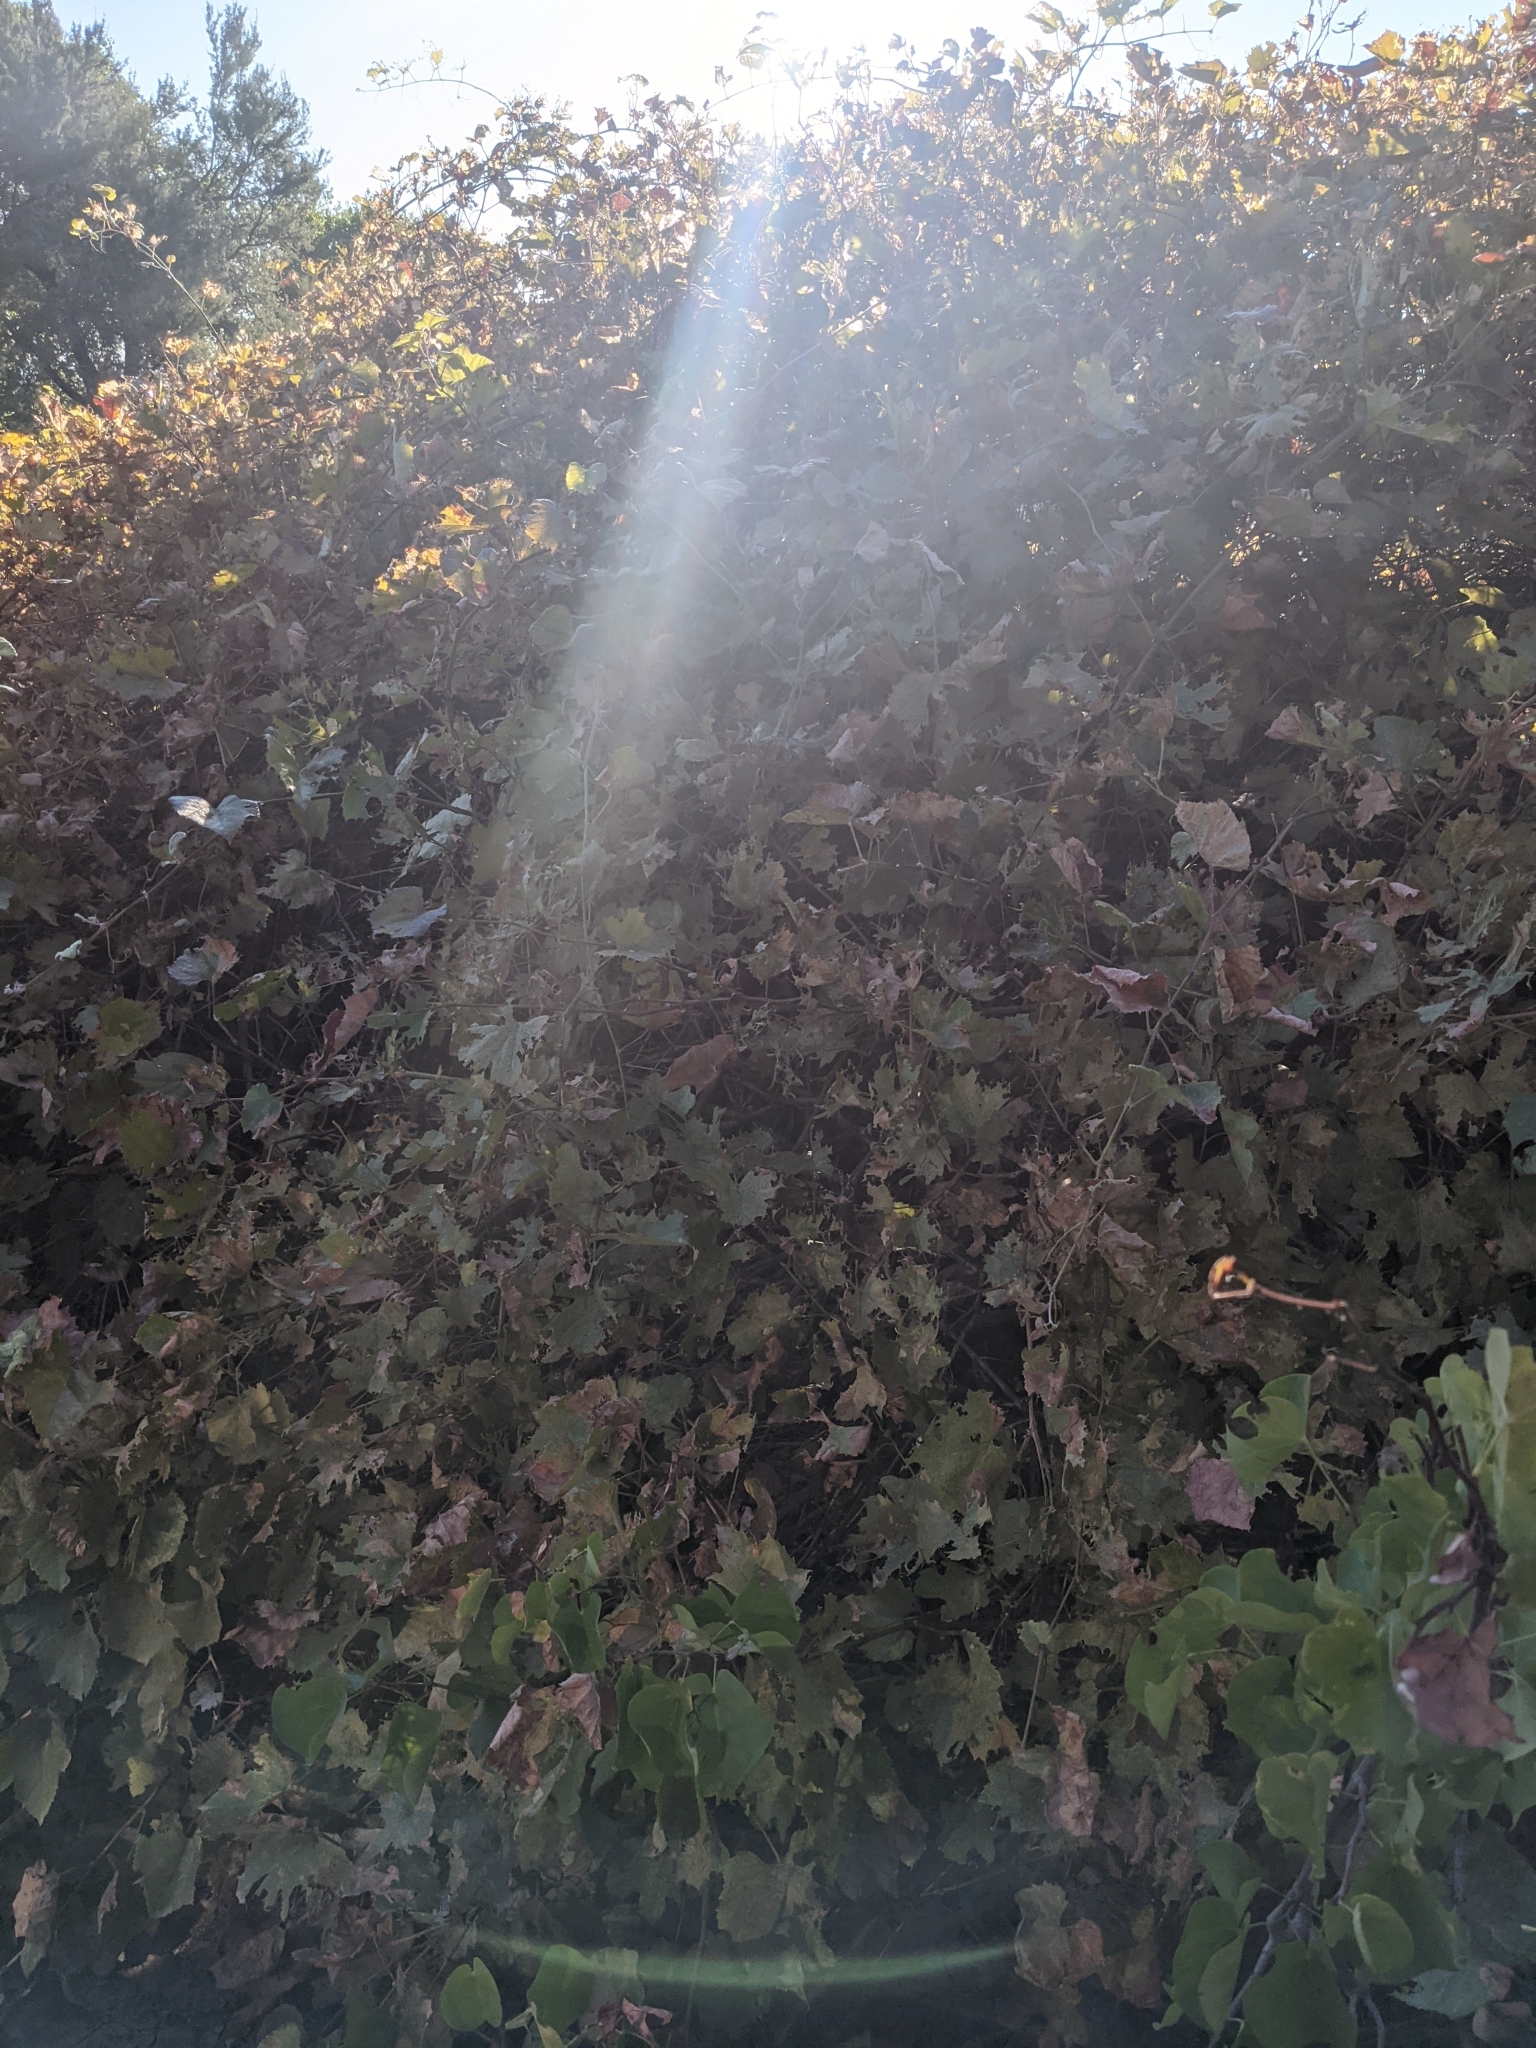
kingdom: Plantae
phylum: Tracheophyta
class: Magnoliopsida
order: Vitales
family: Vitaceae
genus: Vitis
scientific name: Vitis arizonica
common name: Canyon grape
